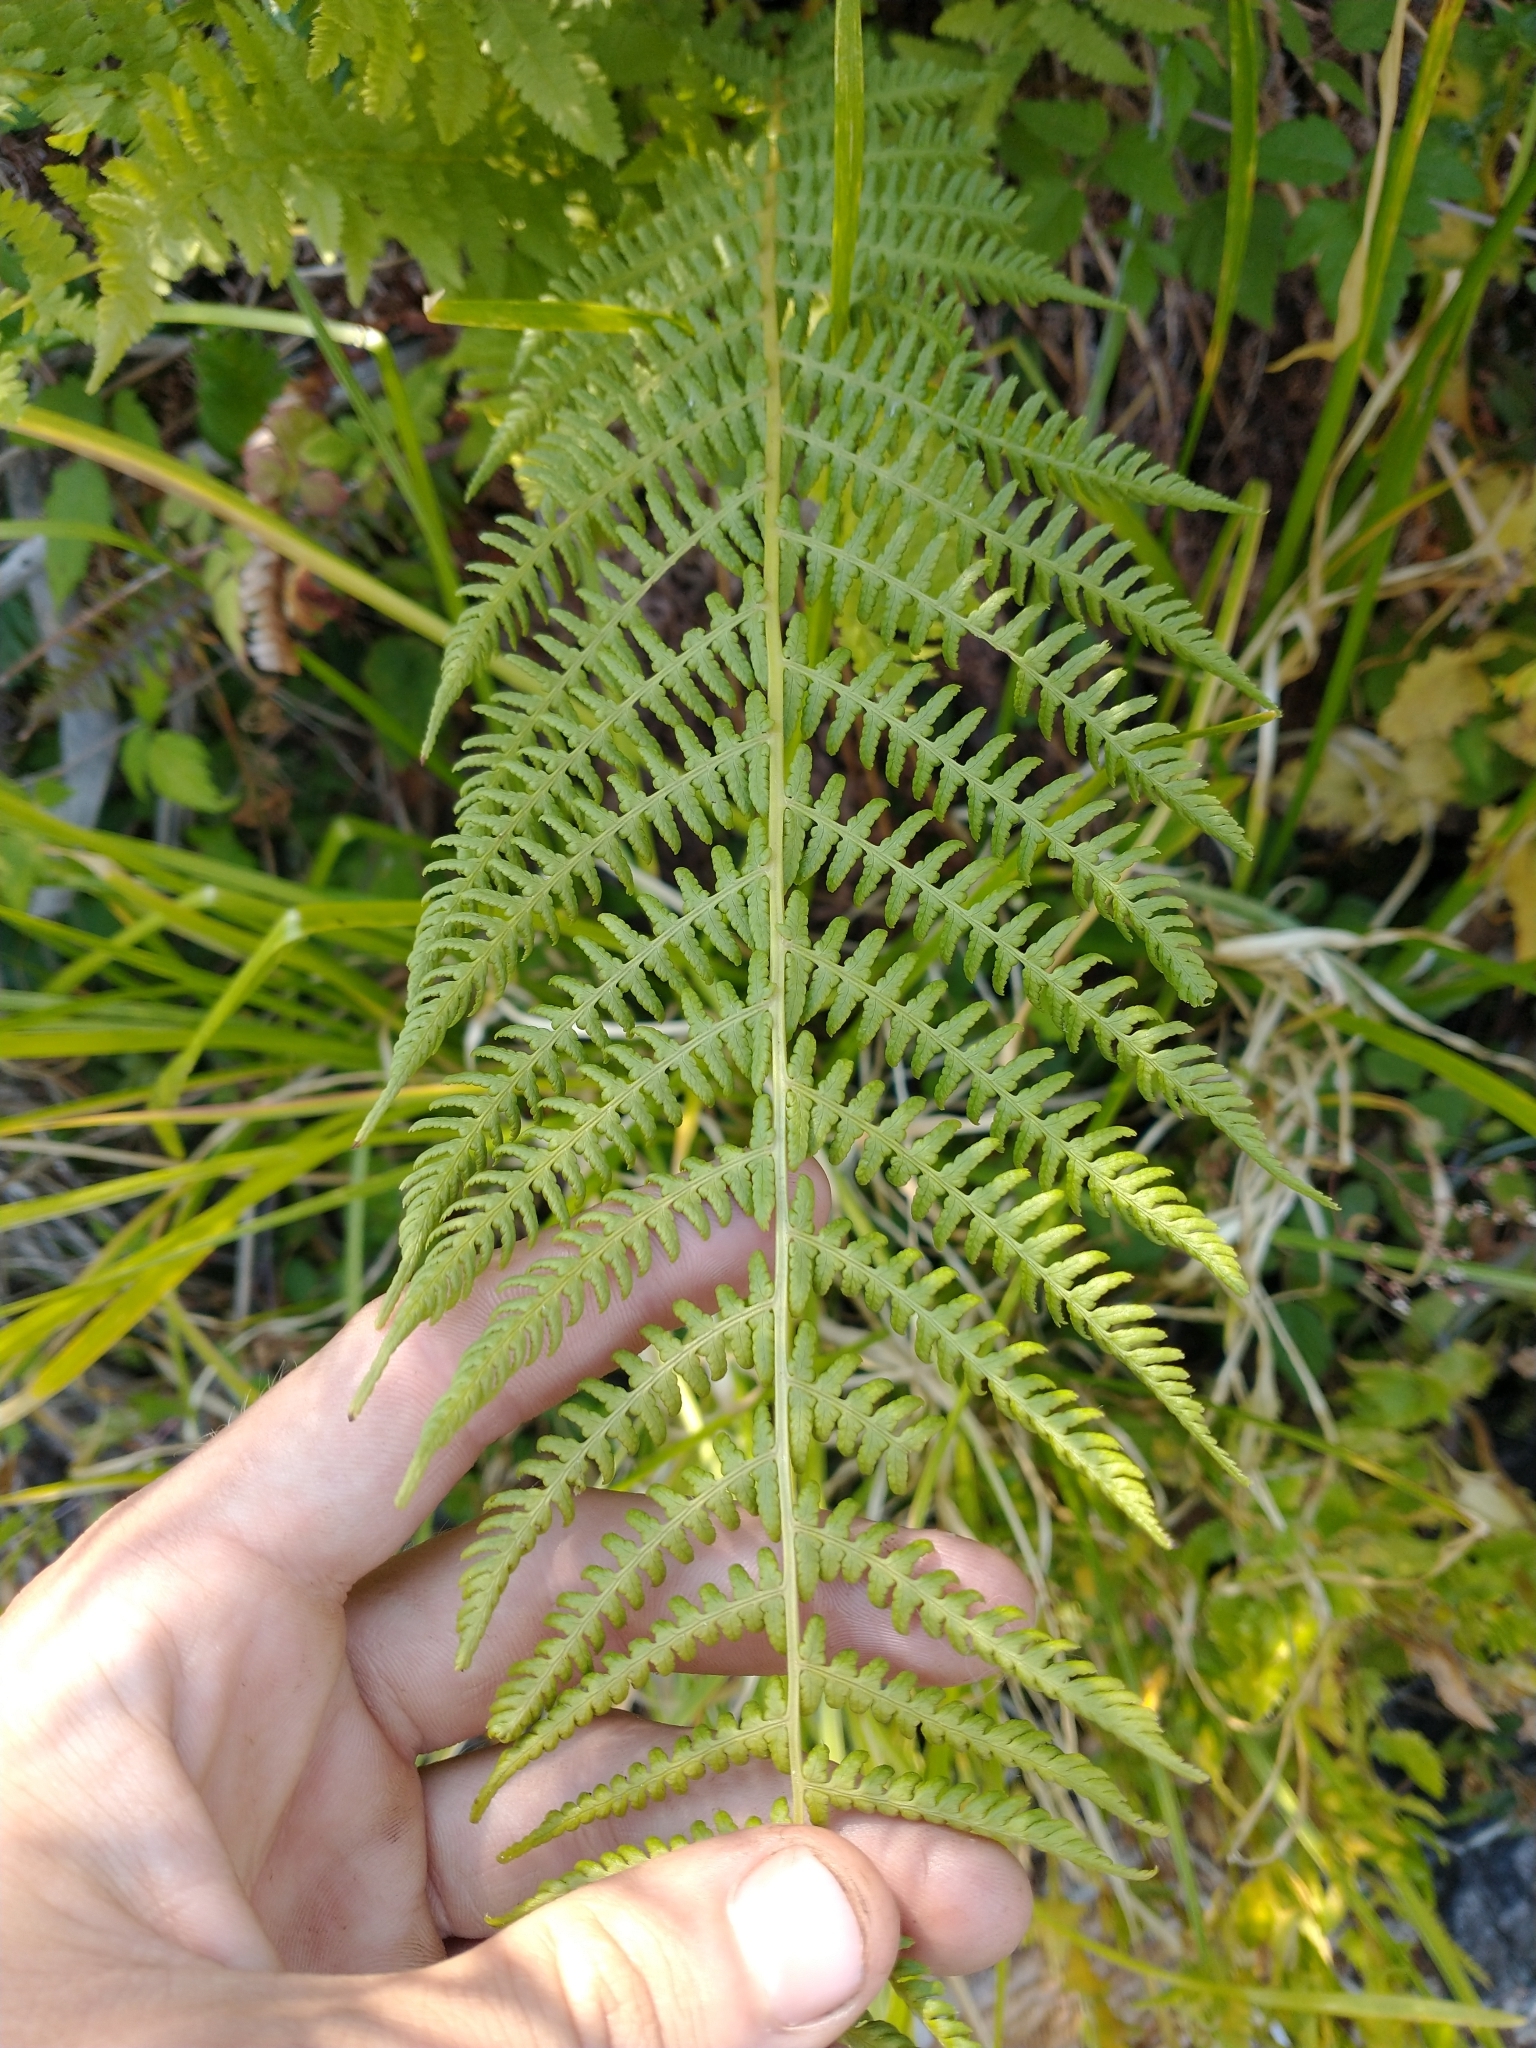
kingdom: Plantae
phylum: Tracheophyta
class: Polypodiopsida
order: Polypodiales
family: Athyriaceae
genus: Athyrium
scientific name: Athyrium filix-femina
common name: Lady fern
